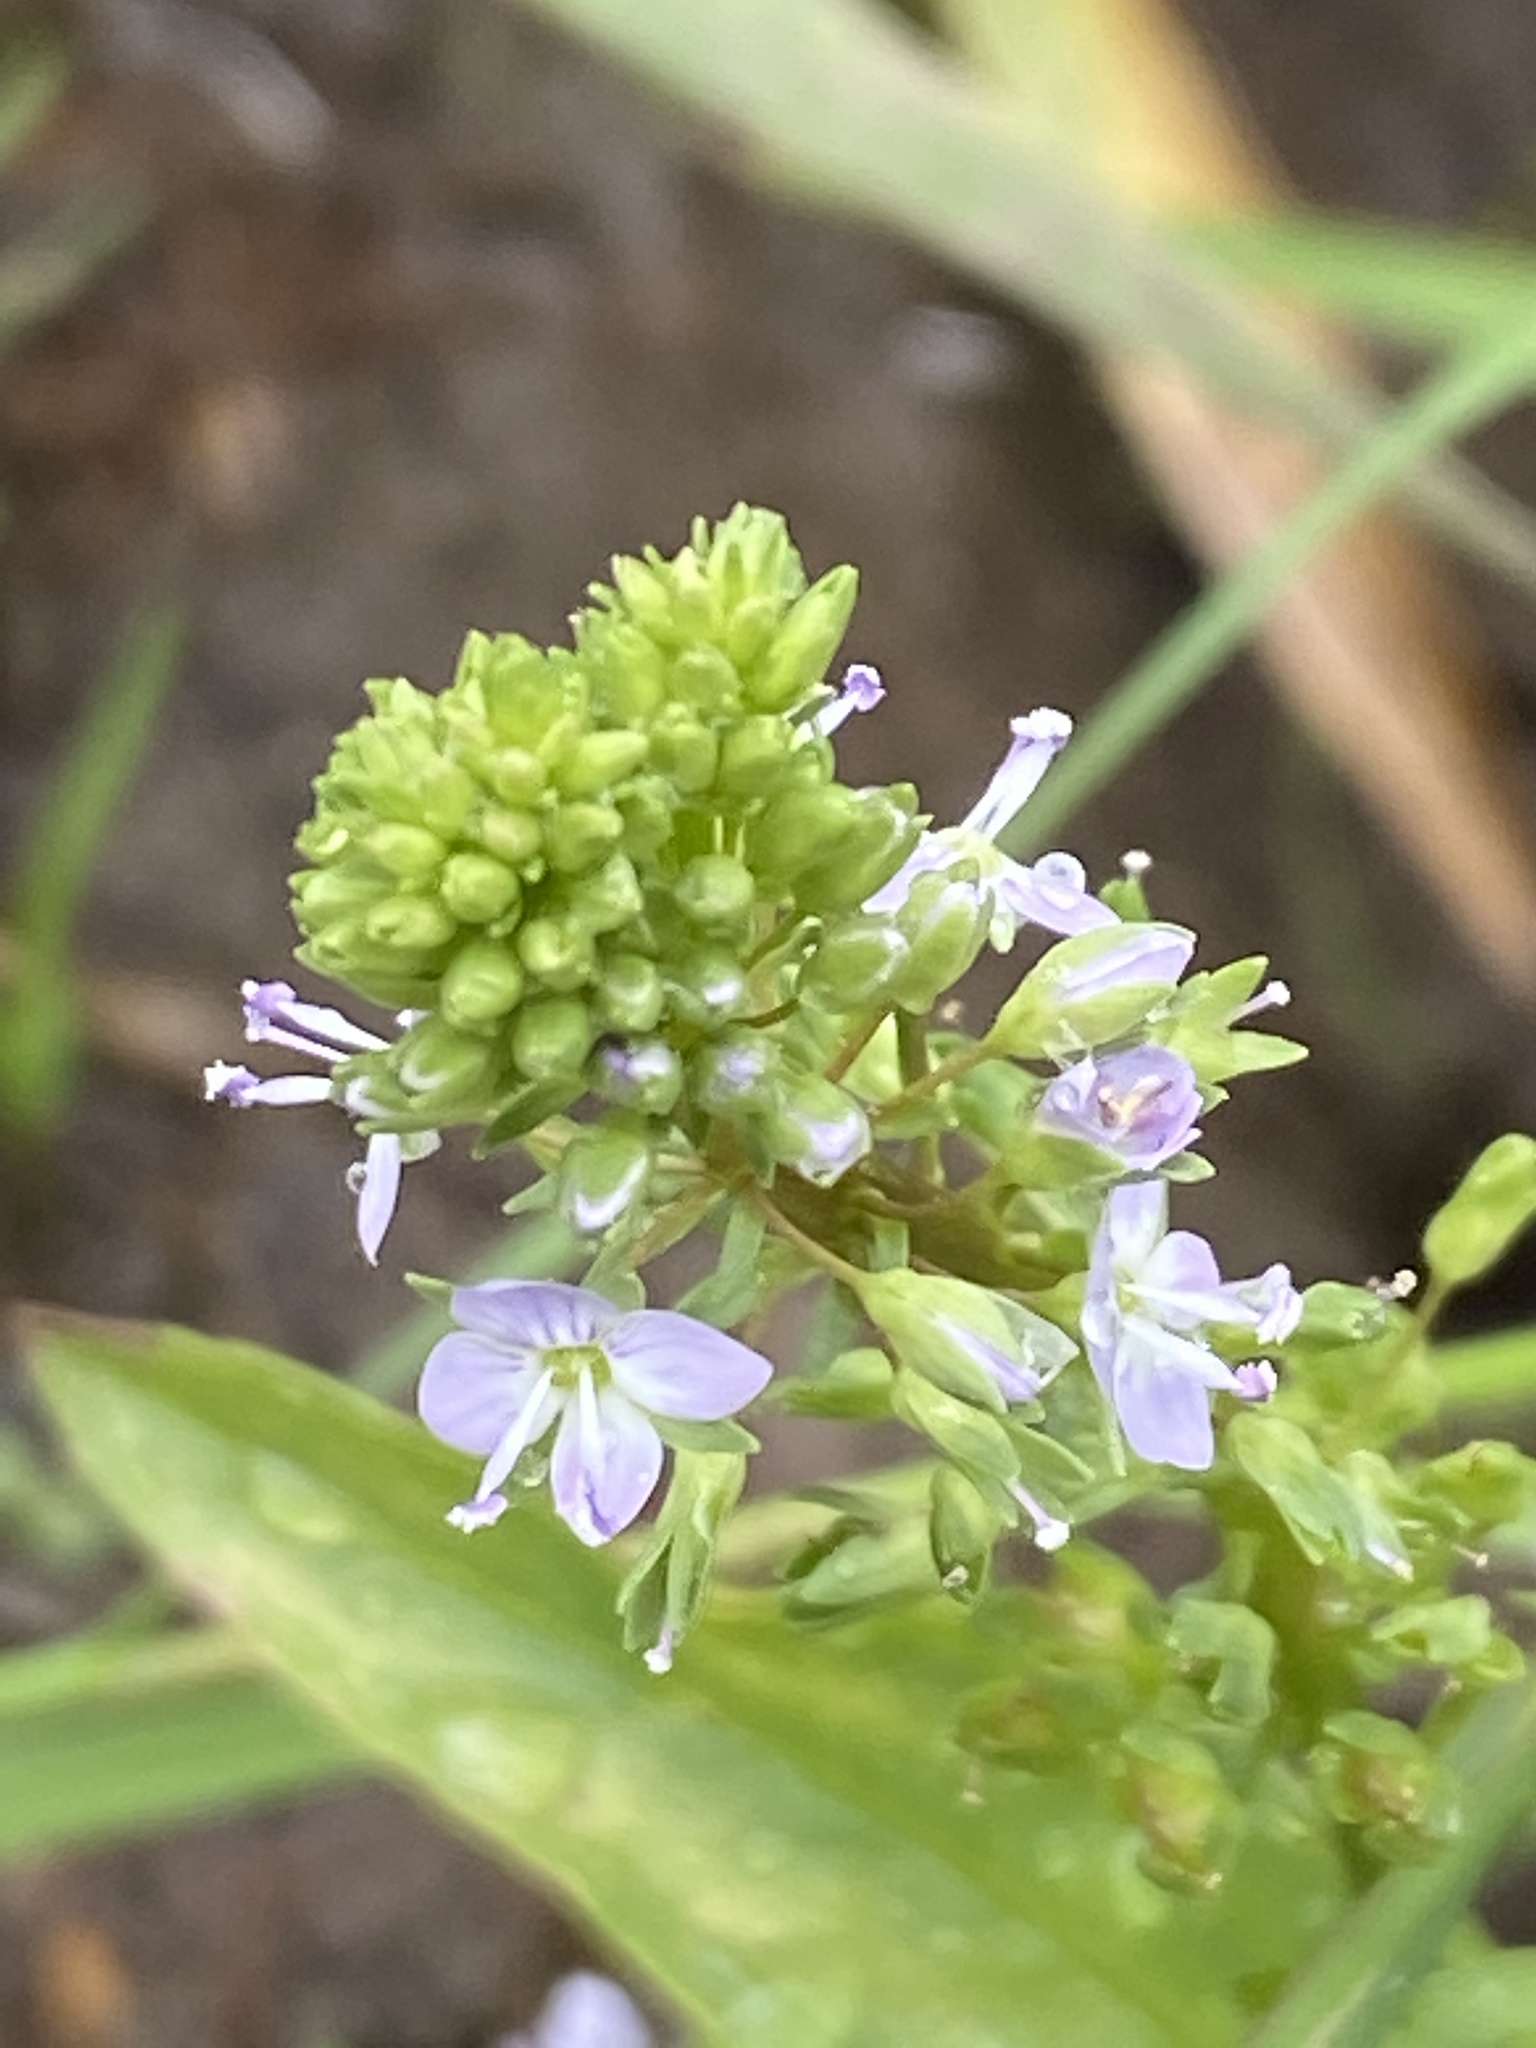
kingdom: Plantae
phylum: Tracheophyta
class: Magnoliopsida
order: Lamiales
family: Plantaginaceae
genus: Veronica
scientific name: Veronica anagallis-aquatica
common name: Water speedwell
